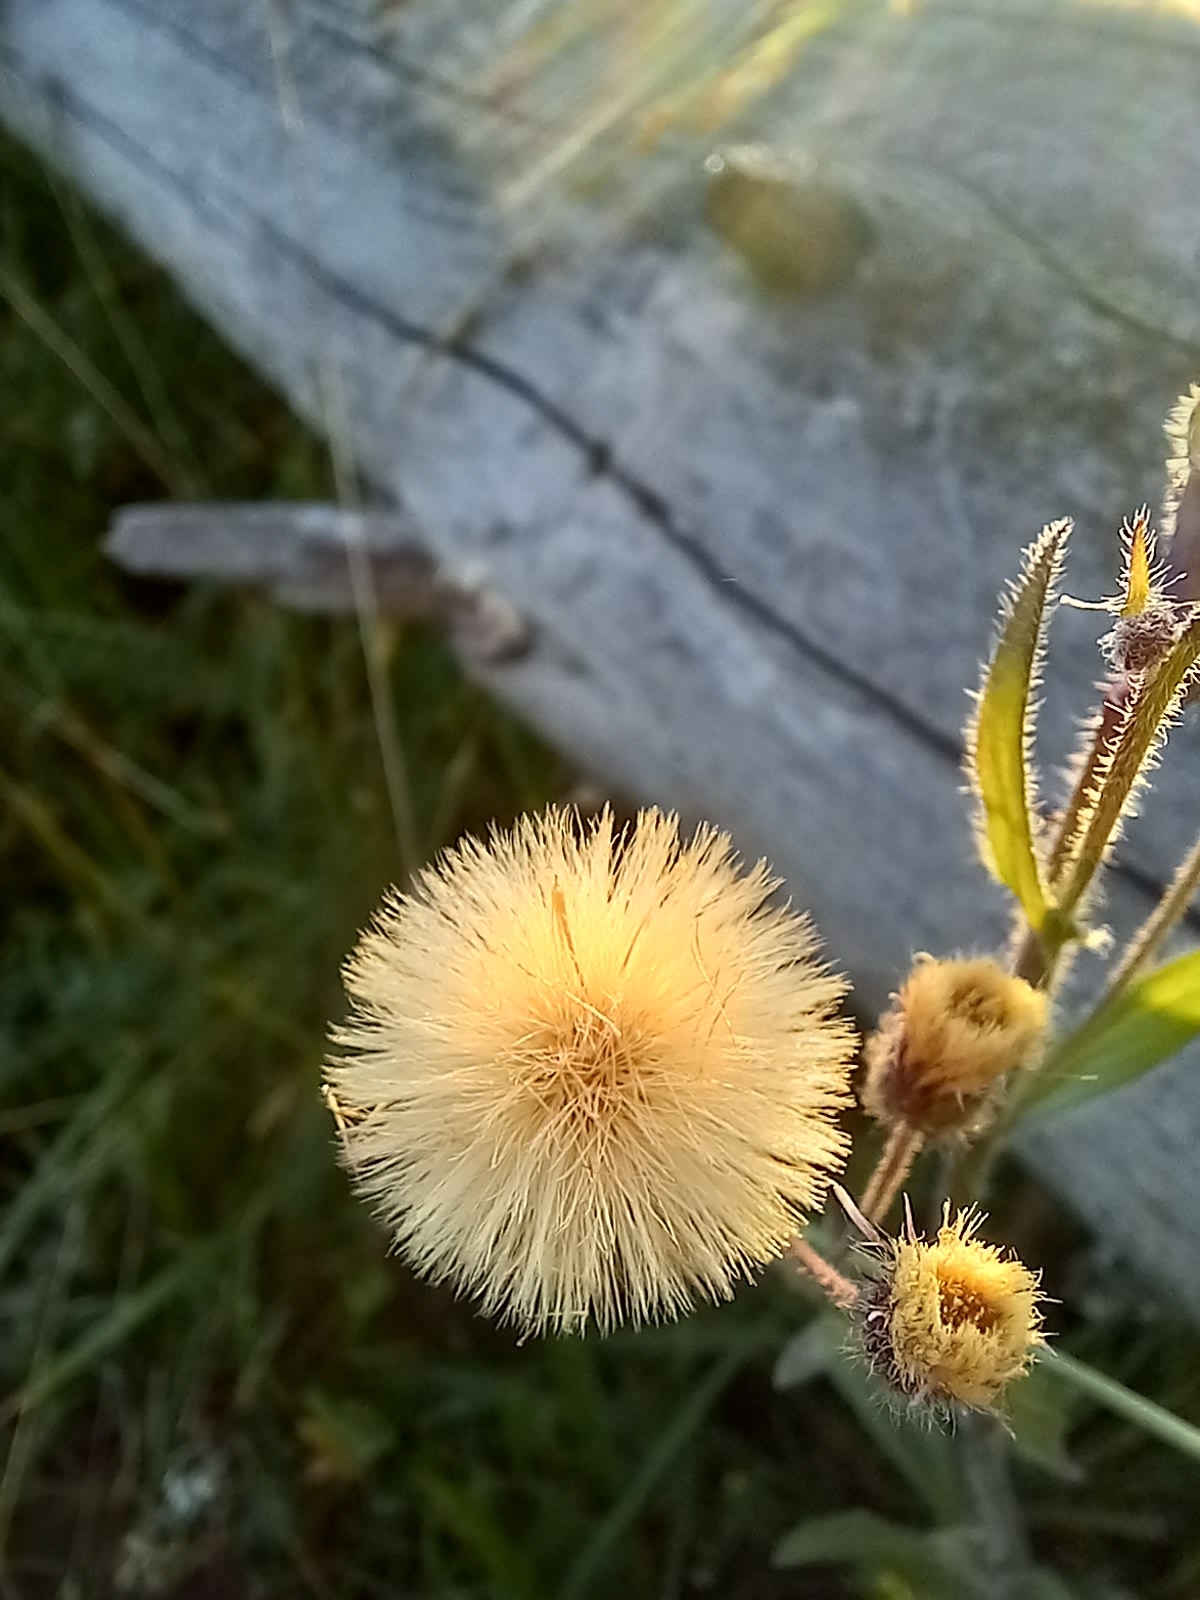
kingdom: Plantae
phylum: Tracheophyta
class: Magnoliopsida
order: Asterales
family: Asteraceae
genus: Erigeron
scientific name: Erigeron acris
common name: Blue fleabane
